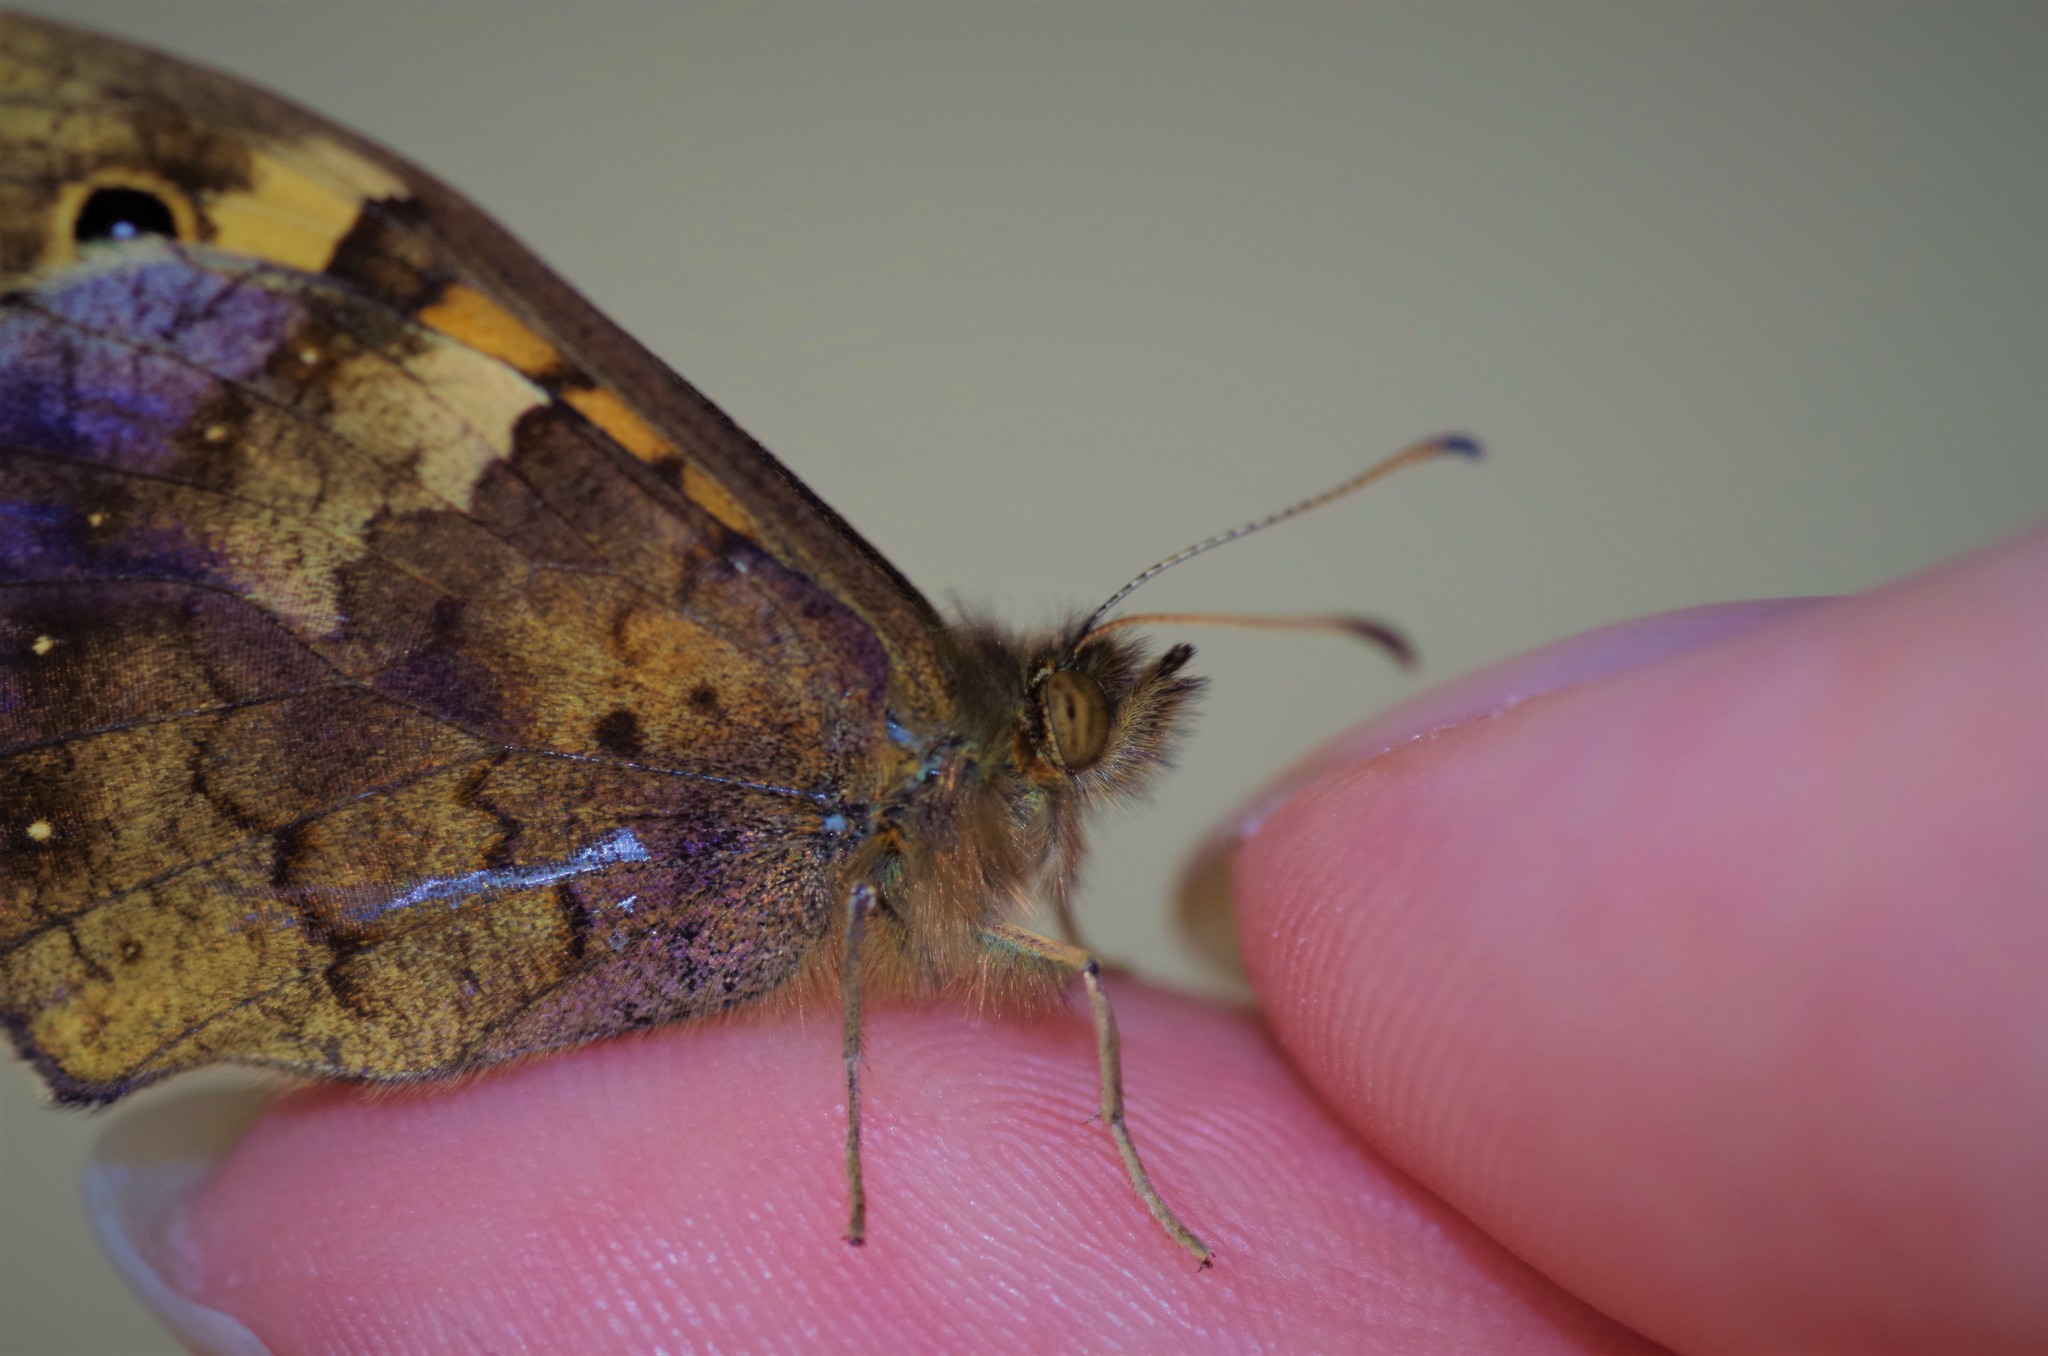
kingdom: Animalia
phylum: Arthropoda
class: Insecta
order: Lepidoptera
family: Nymphalidae
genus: Pararge
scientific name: Pararge aegeria
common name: Speckled wood
